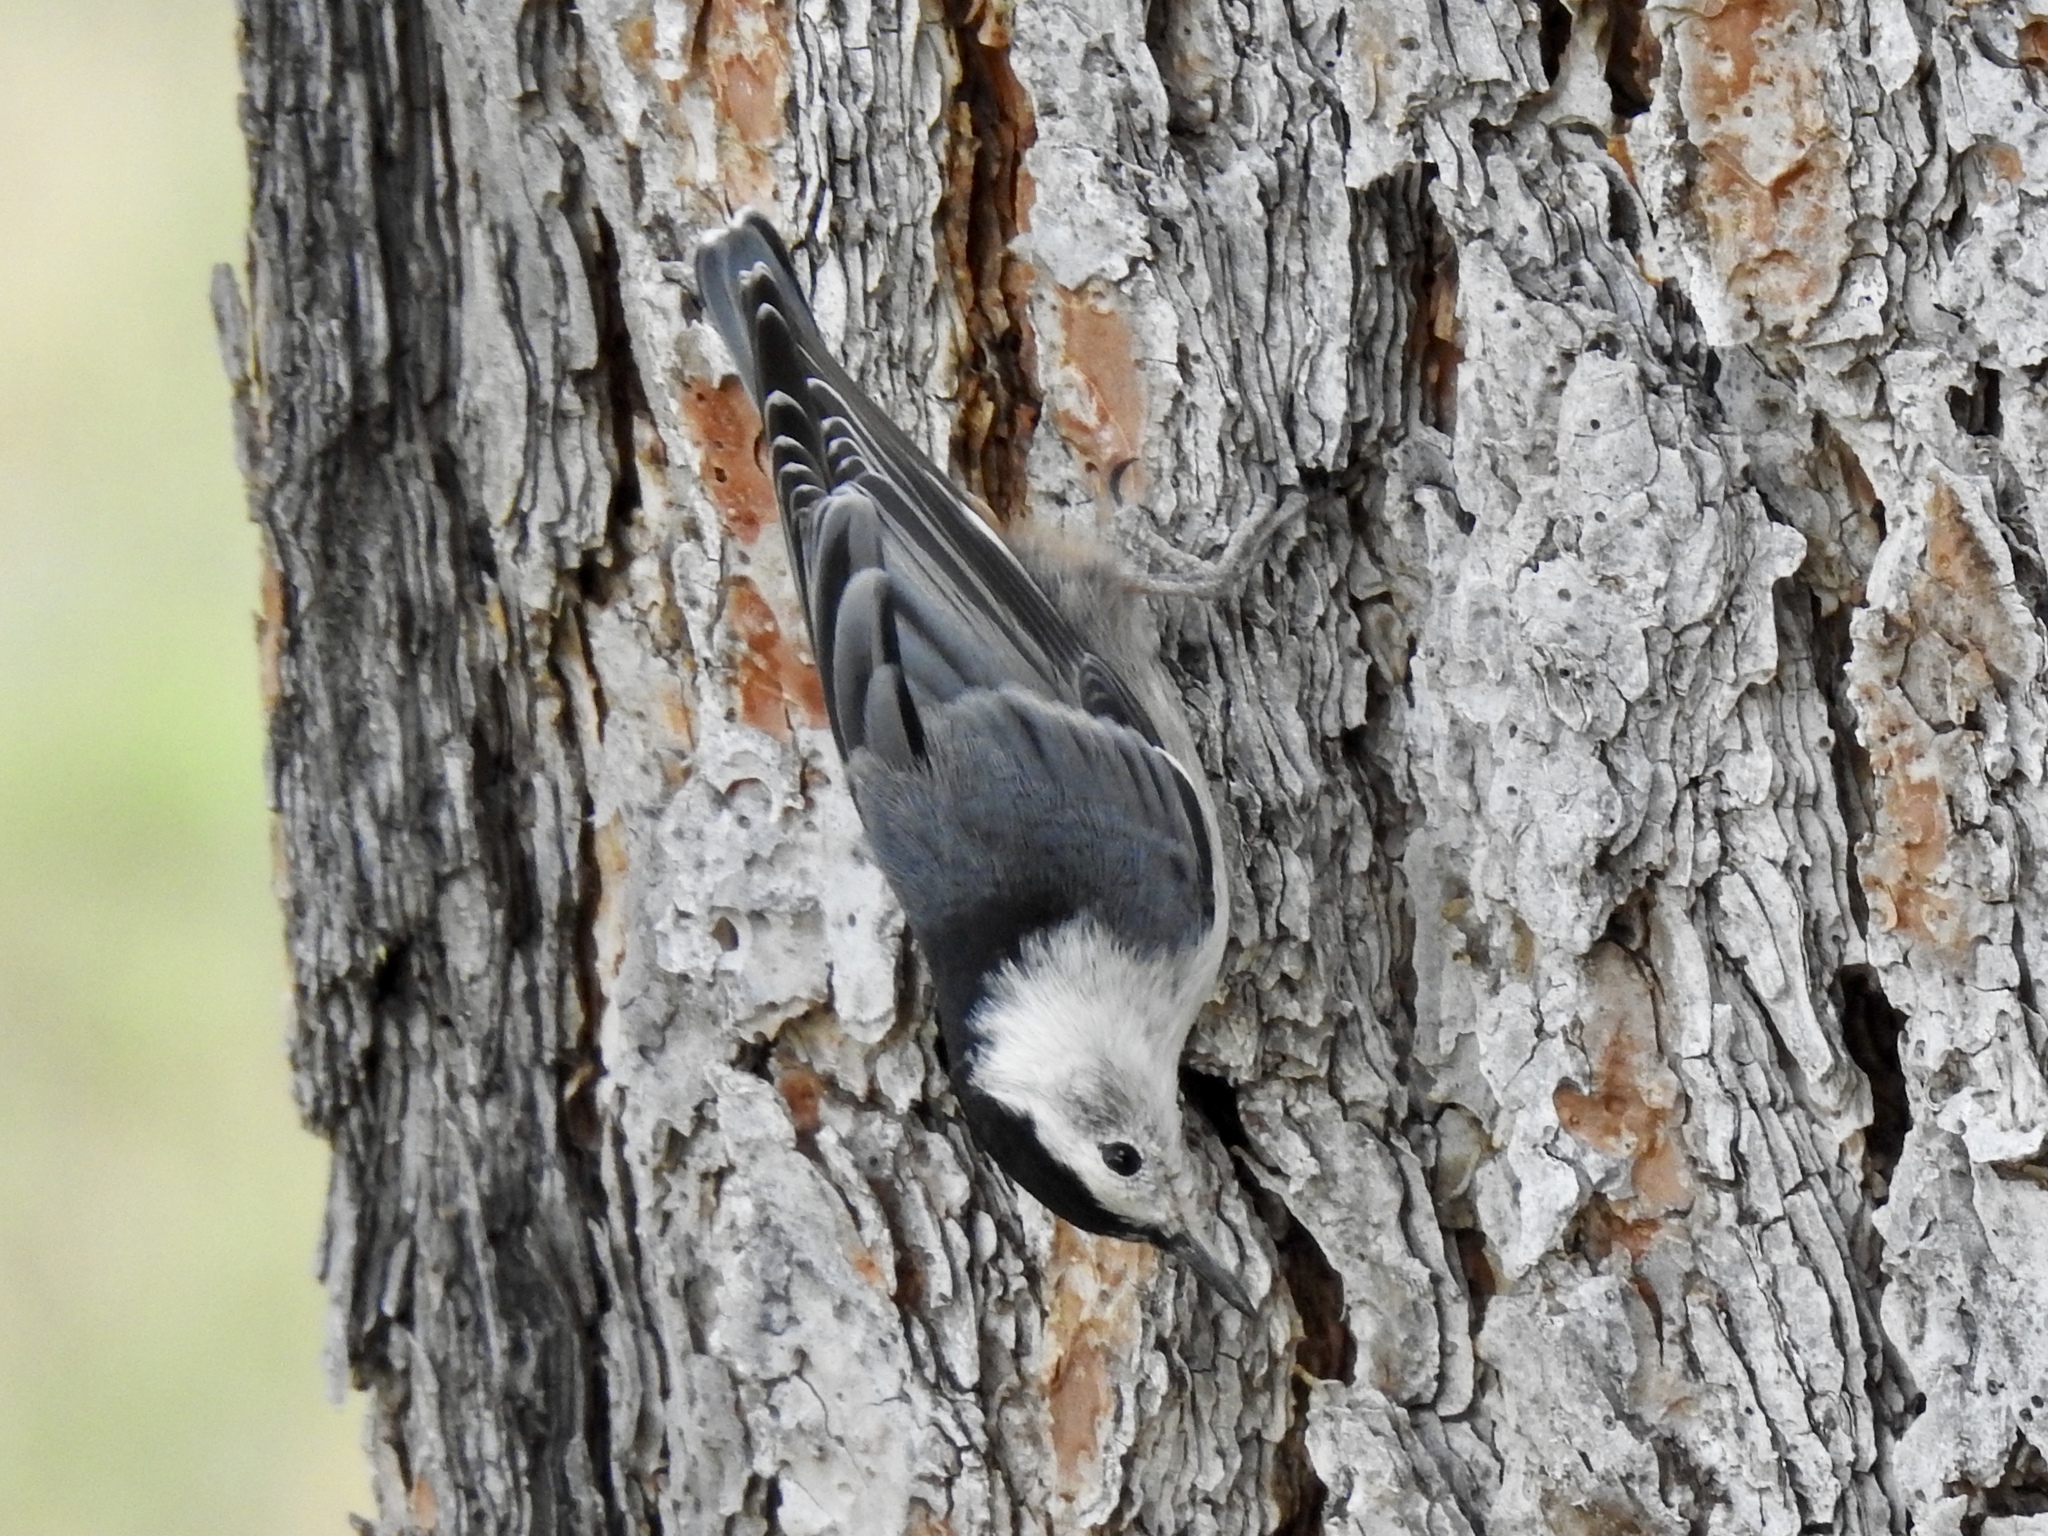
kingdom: Animalia
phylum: Chordata
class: Aves
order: Passeriformes
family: Sittidae
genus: Sitta
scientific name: Sitta carolinensis
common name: White-breasted nuthatch
